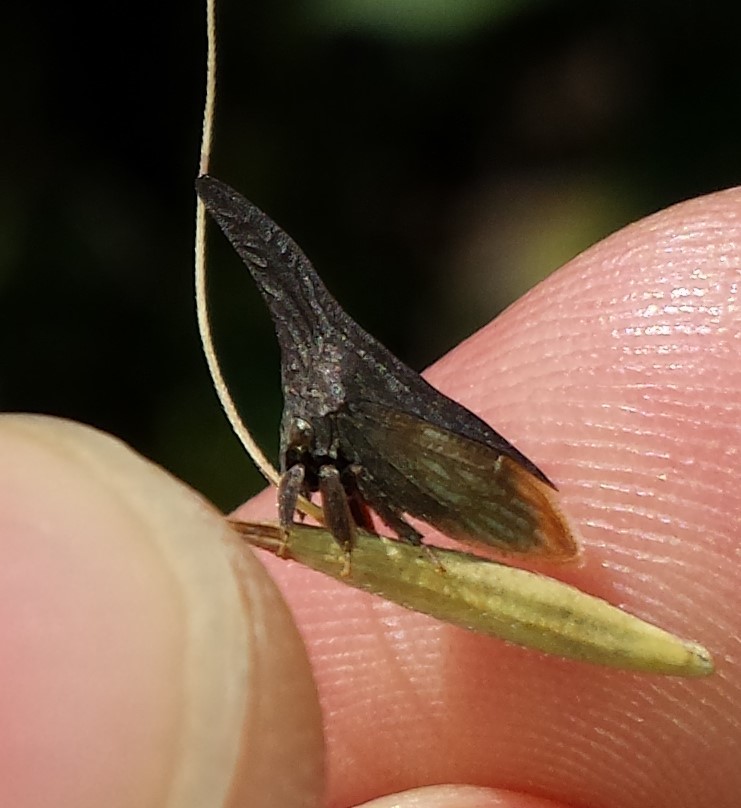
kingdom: Animalia
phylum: Arthropoda
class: Insecta
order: Hemiptera
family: Membracidae
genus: Enchenopa
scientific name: Enchenopa latipes
